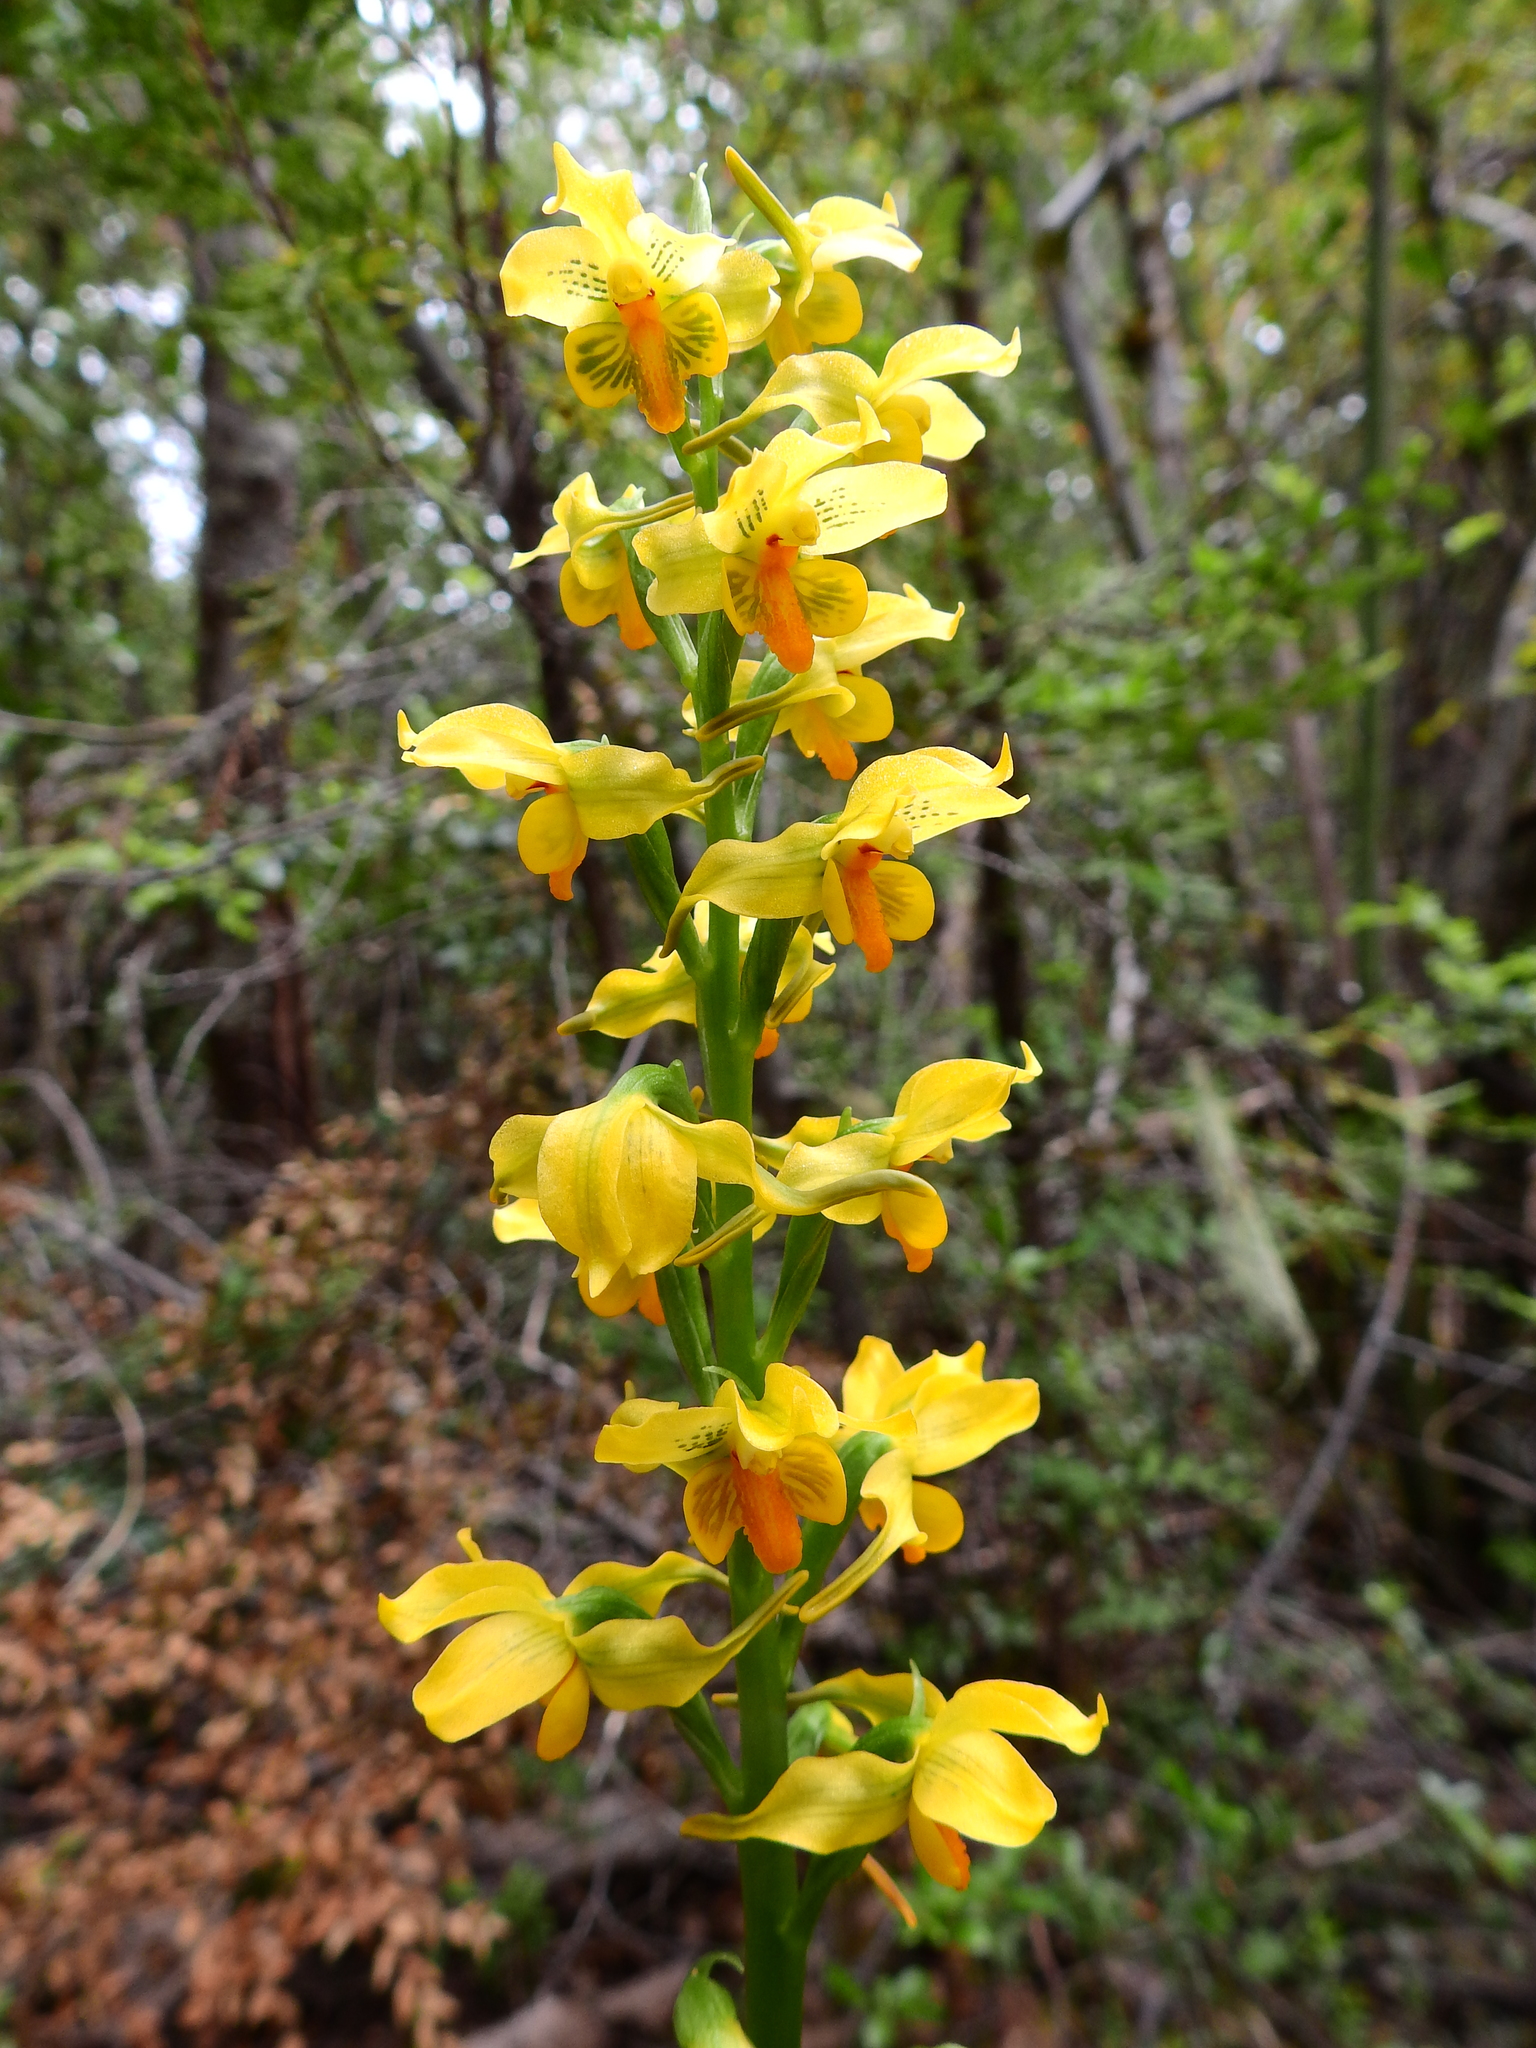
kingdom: Plantae
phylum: Tracheophyta
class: Liliopsida
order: Asparagales
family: Orchidaceae
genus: Gavilea
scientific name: Gavilea odoratissima
